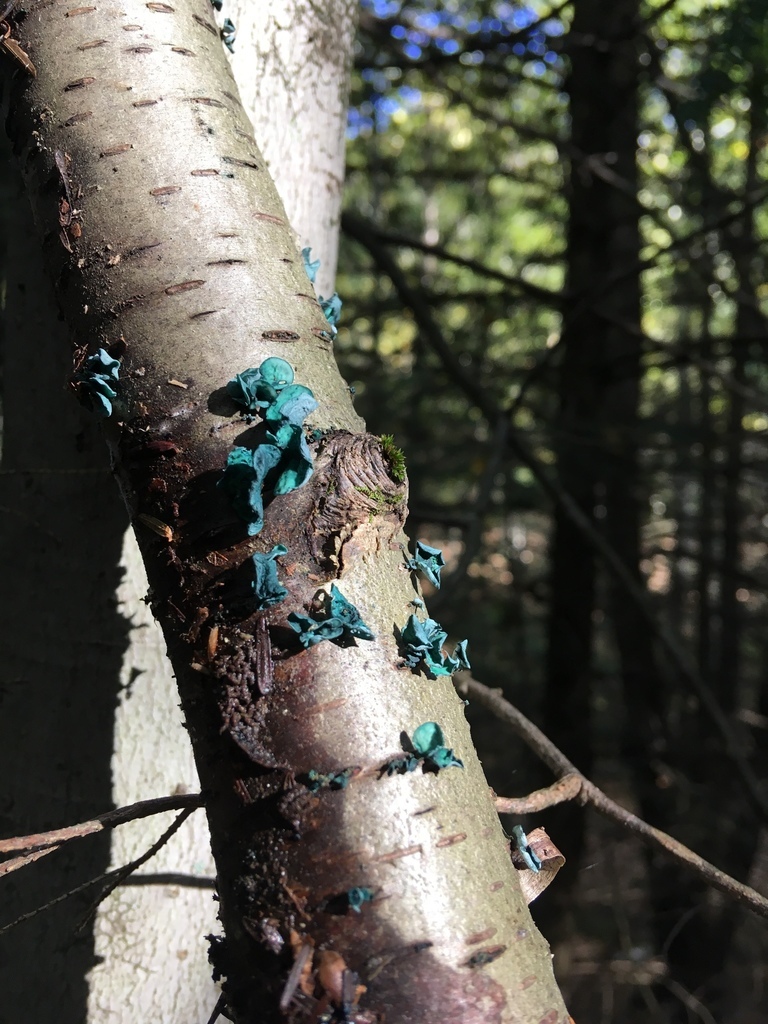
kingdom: Fungi
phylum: Ascomycota
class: Leotiomycetes
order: Helotiales
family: Chlorociboriaceae
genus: Chlorociboria
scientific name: Chlorociboria aeruginascens
